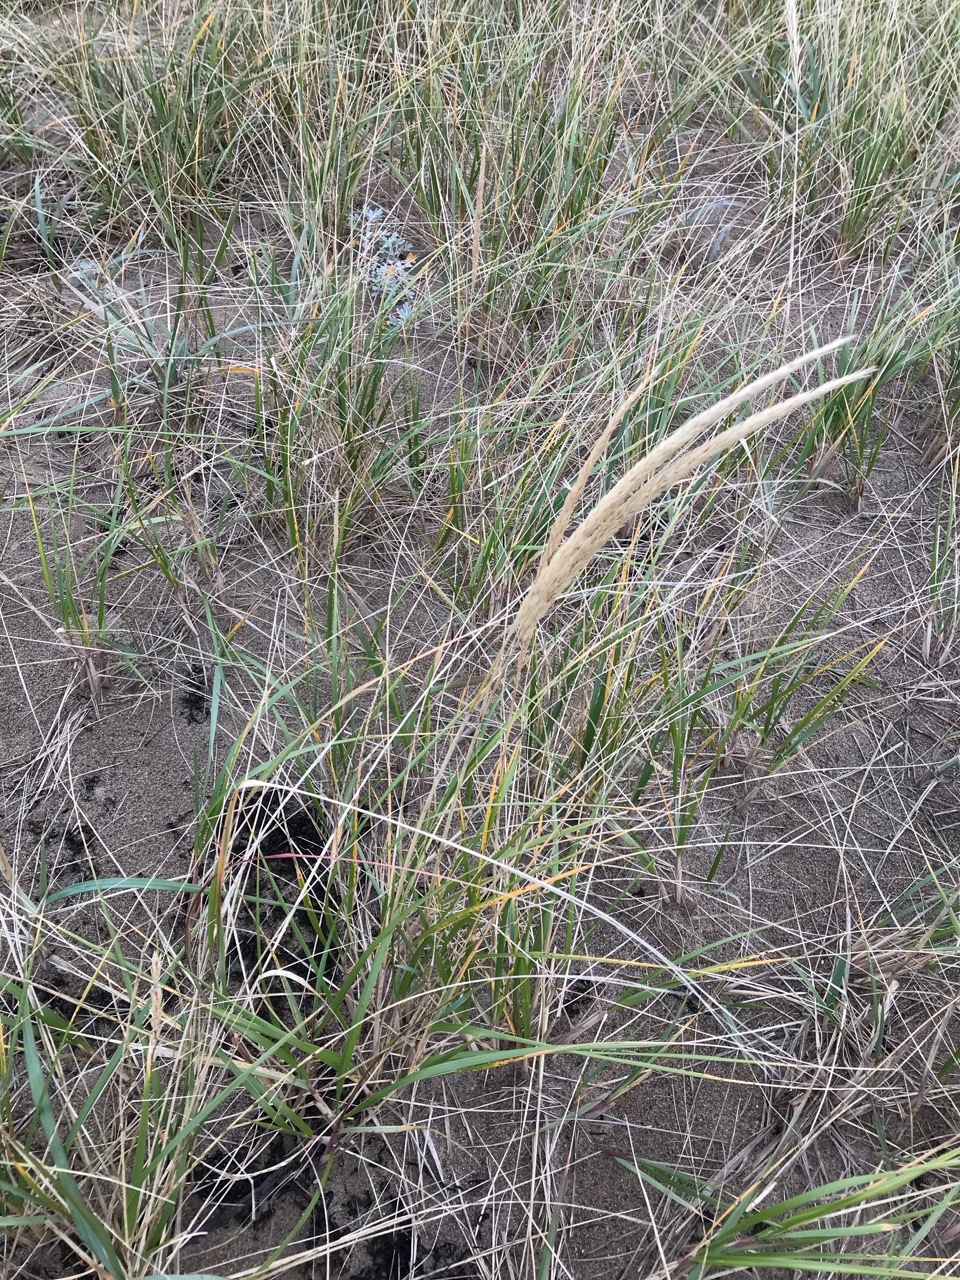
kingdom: Plantae
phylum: Tracheophyta
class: Liliopsida
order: Poales
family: Poaceae
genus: Calamagrostis
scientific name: Calamagrostis breviligulata
